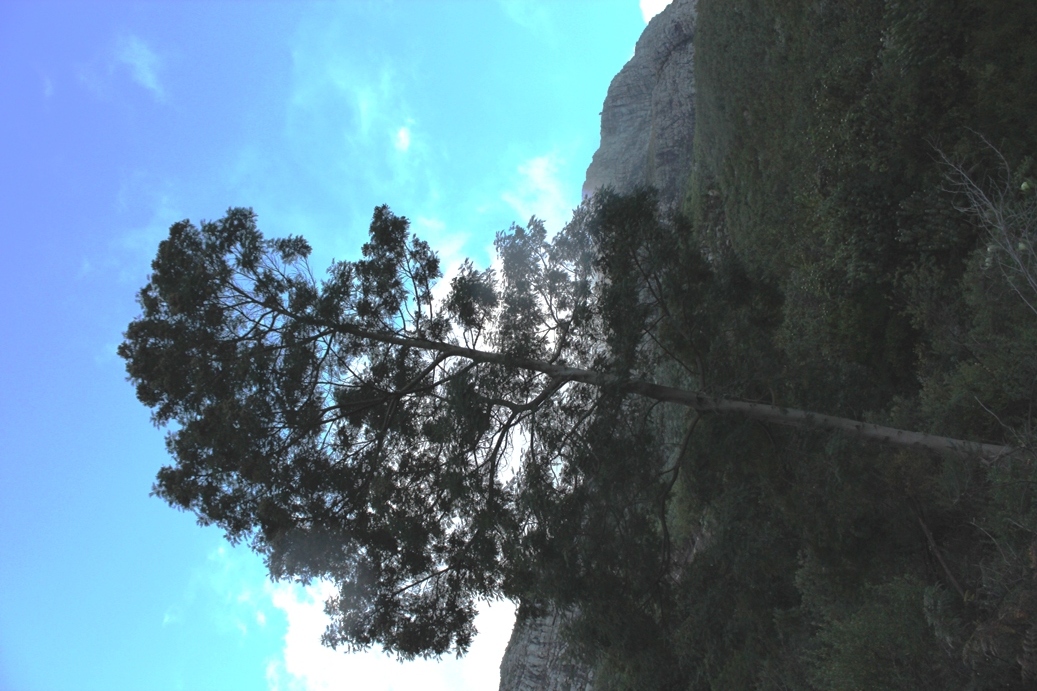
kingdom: Plantae
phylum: Tracheophyta
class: Magnoliopsida
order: Fabales
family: Fabaceae
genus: Acacia
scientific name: Acacia mearnsii
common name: Black wattle
